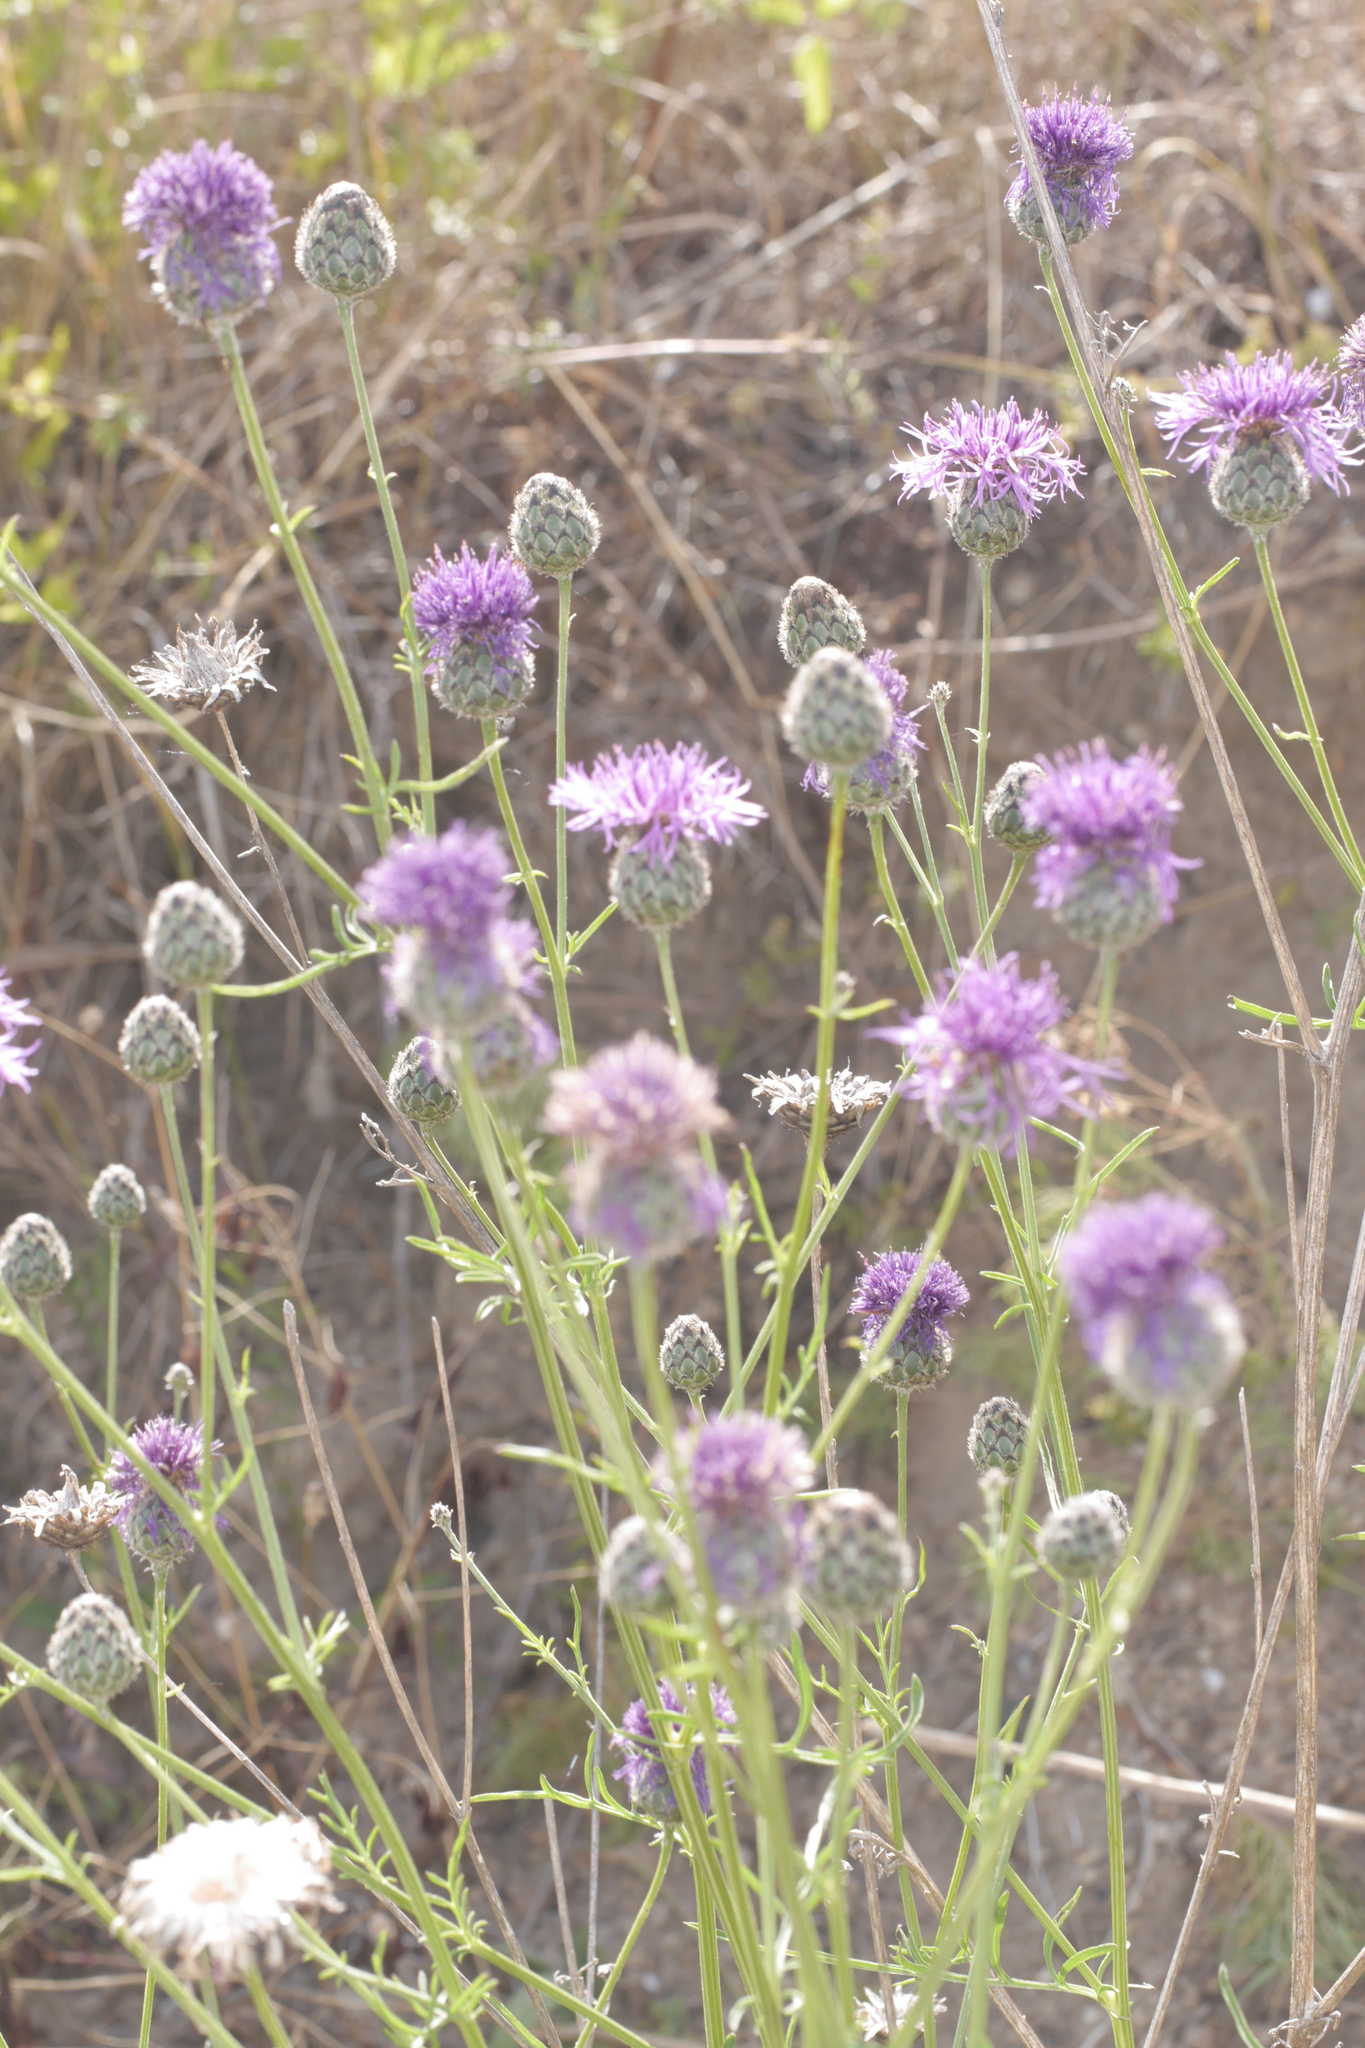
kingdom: Plantae
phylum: Tracheophyta
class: Magnoliopsida
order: Asterales
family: Asteraceae
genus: Centaurea
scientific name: Centaurea scabiosa
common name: Greater knapweed
